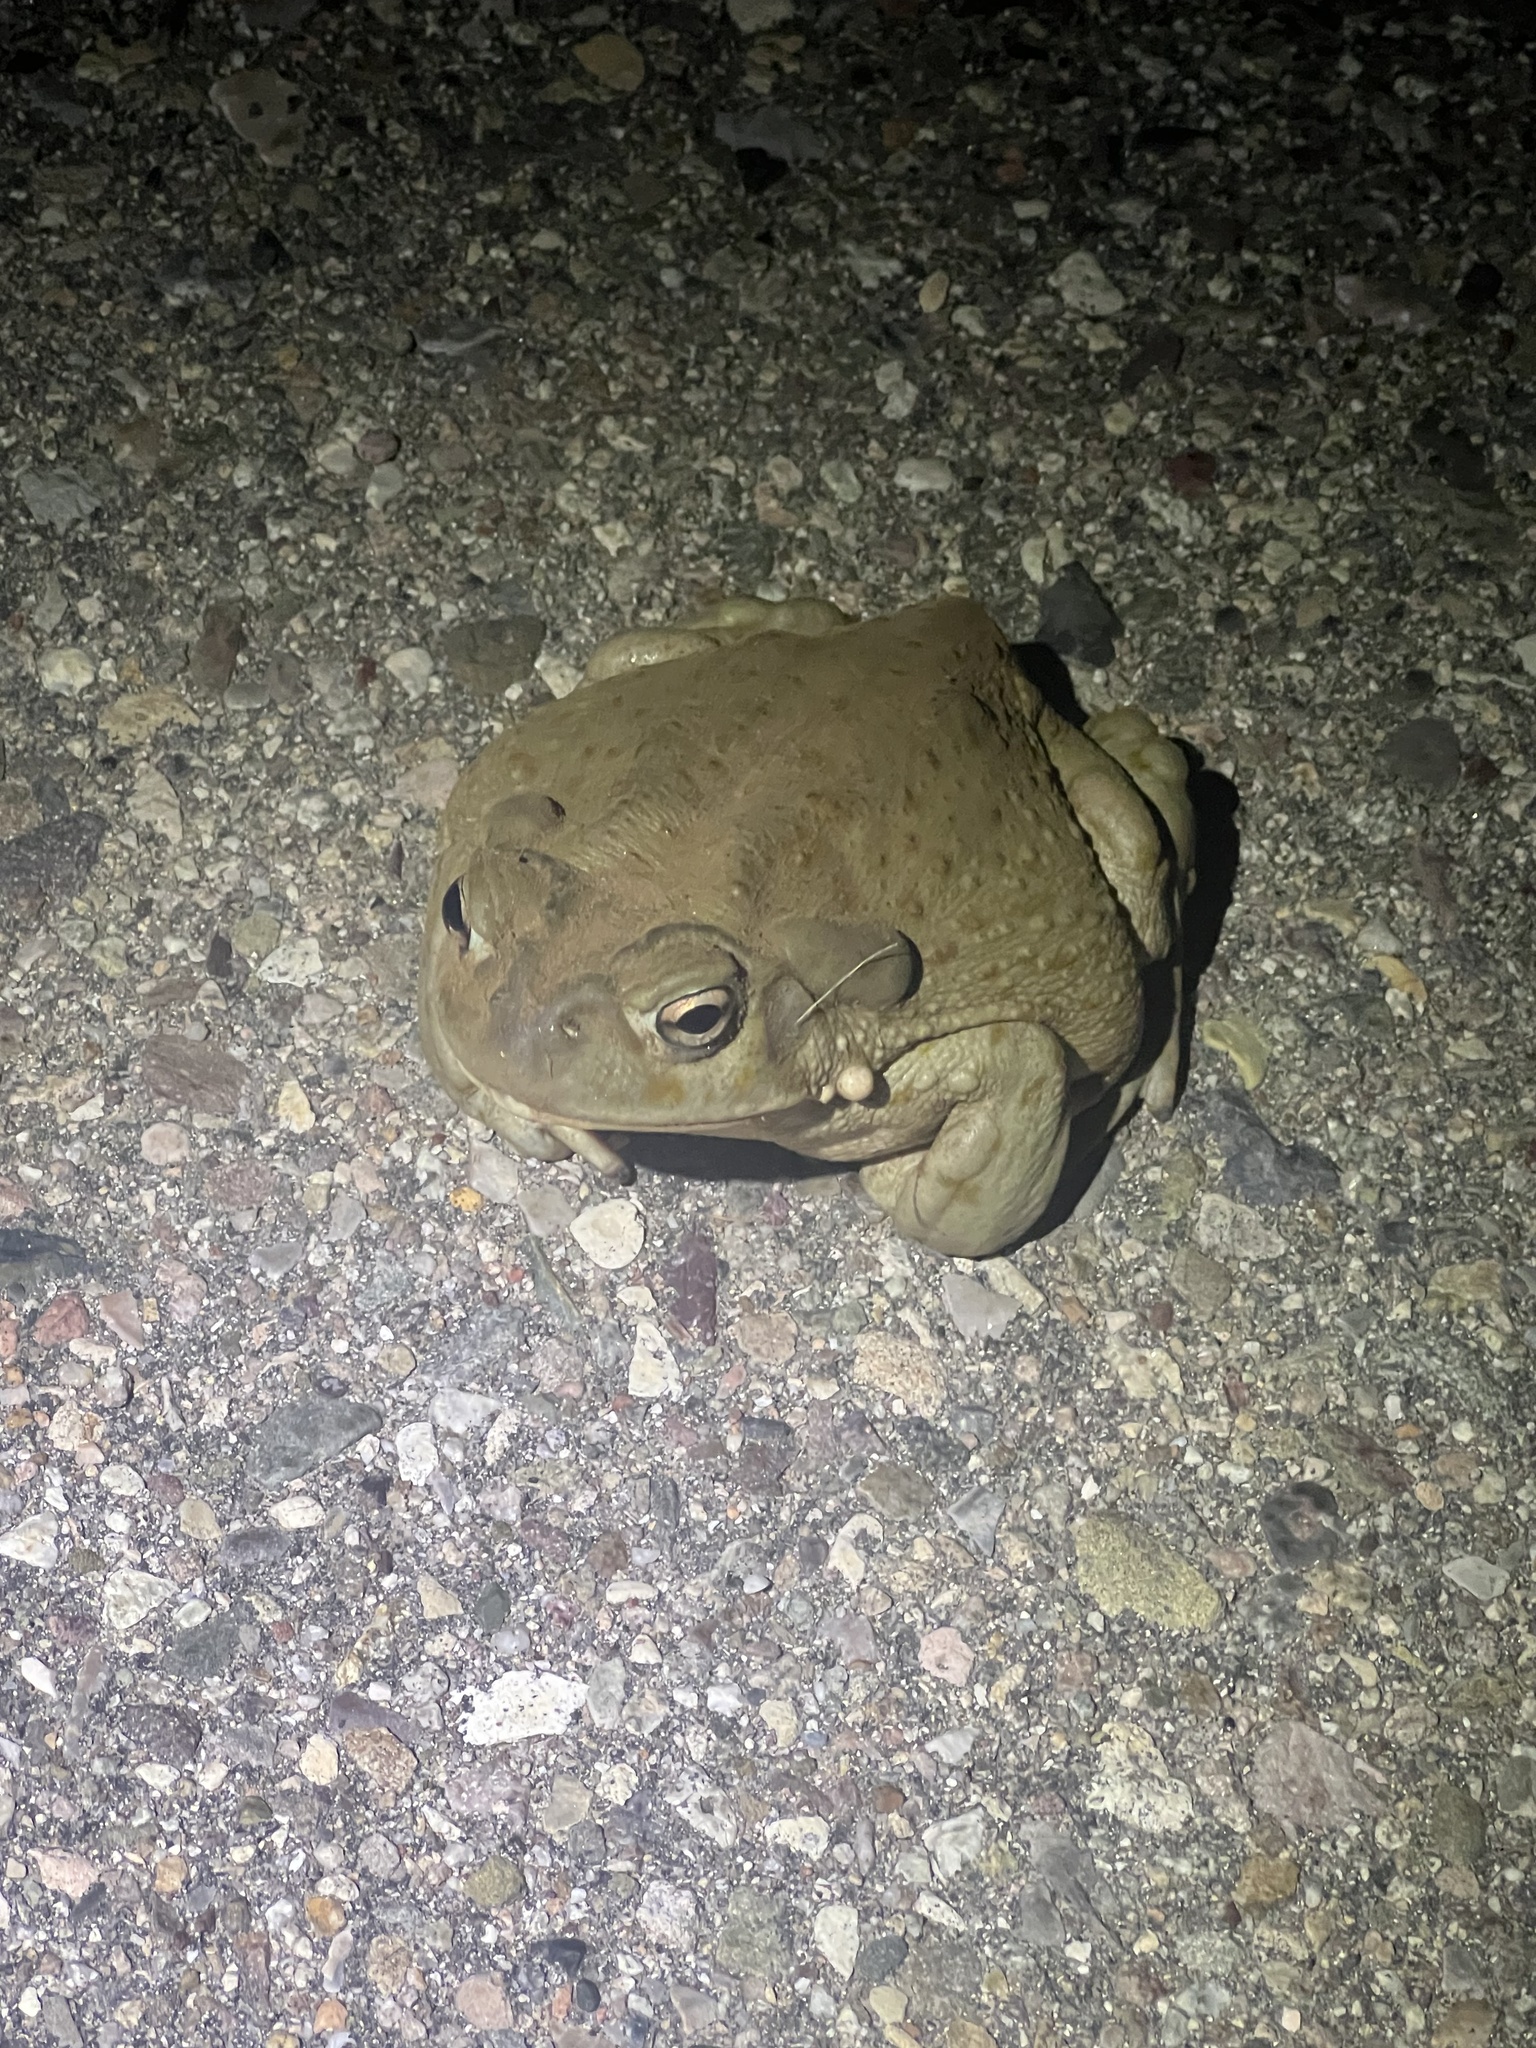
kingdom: Animalia
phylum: Chordata
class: Amphibia
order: Anura
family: Bufonidae
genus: Incilius
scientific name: Incilius alvarius
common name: Sonoran desert toad
